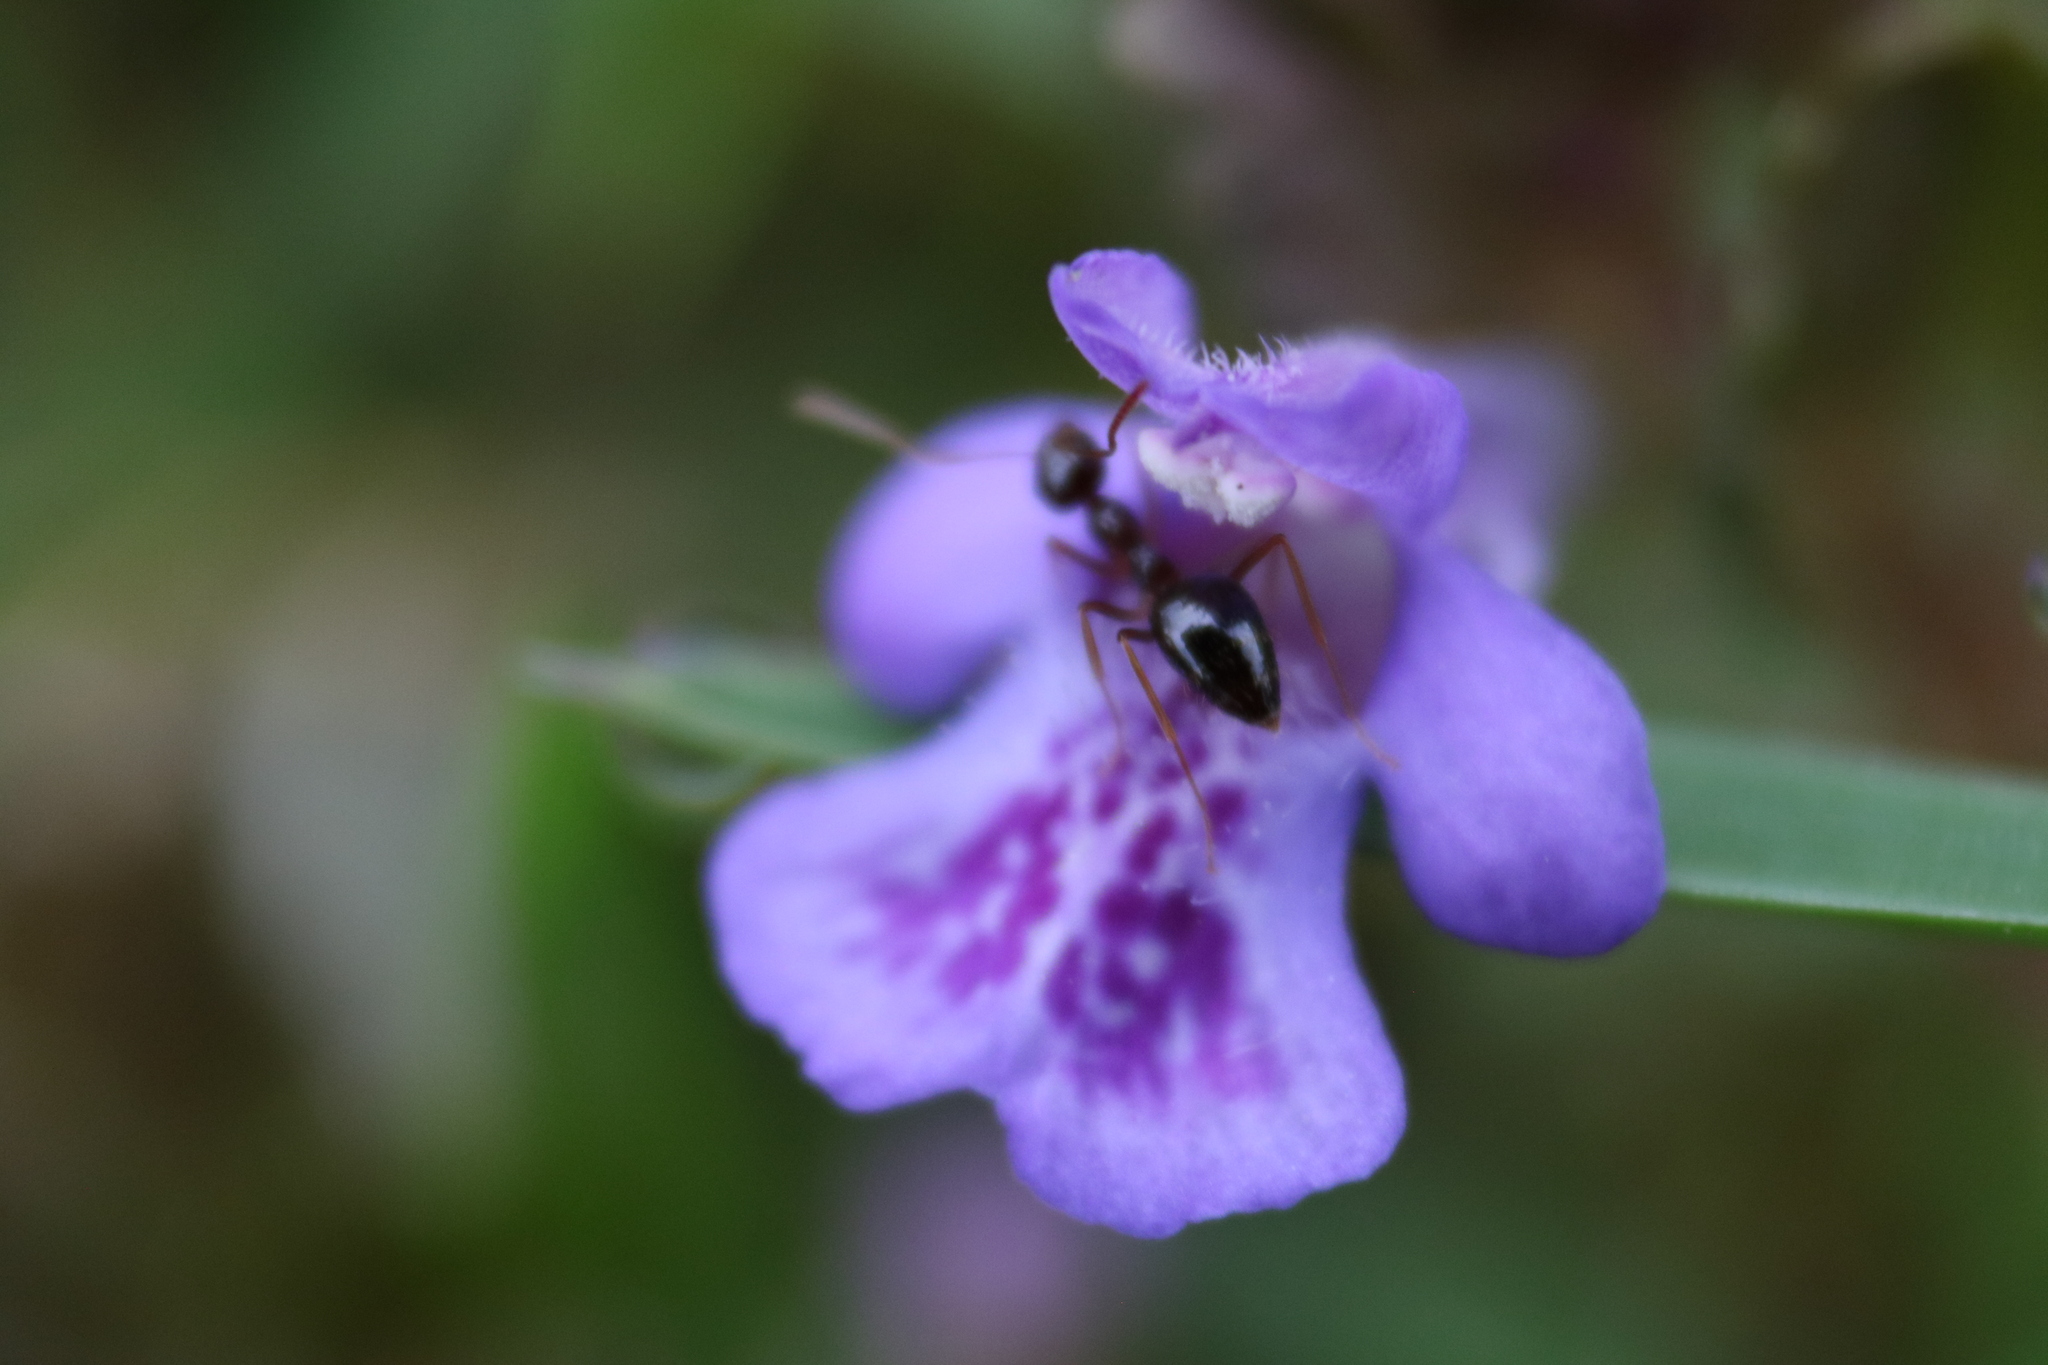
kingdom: Animalia
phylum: Arthropoda
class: Insecta
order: Hymenoptera
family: Formicidae
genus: Prenolepis
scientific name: Prenolepis imparis
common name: Small honey ant
